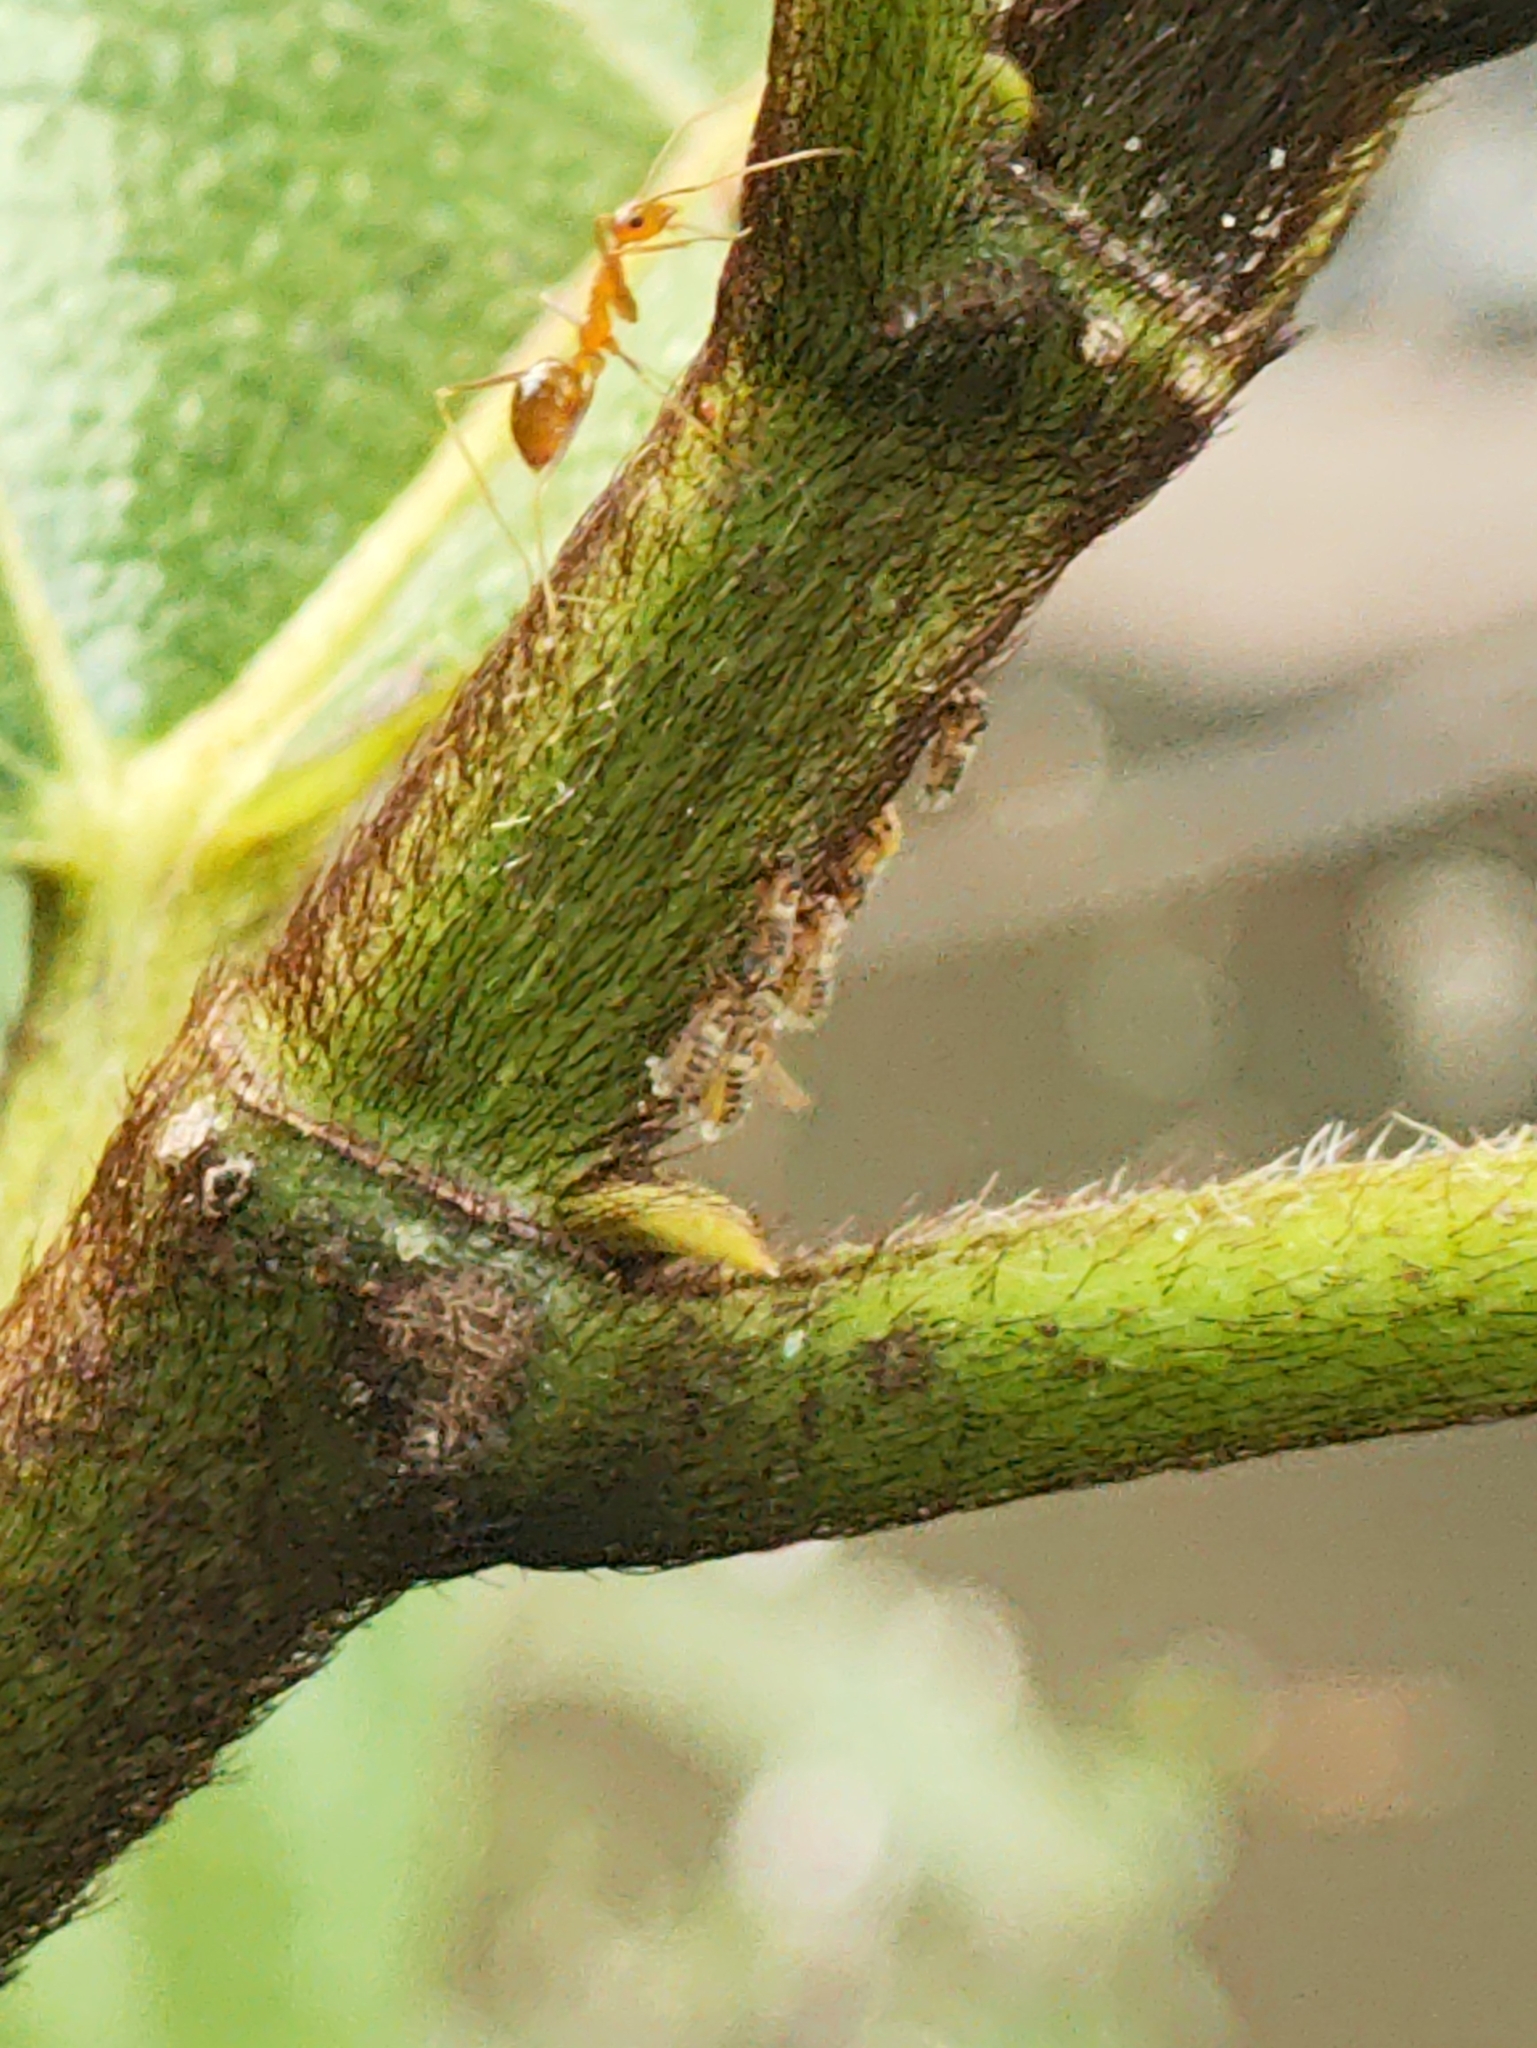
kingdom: Animalia
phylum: Arthropoda
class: Insecta
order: Hymenoptera
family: Formicidae
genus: Anoplolepis
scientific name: Anoplolepis gracilipes
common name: Ant
